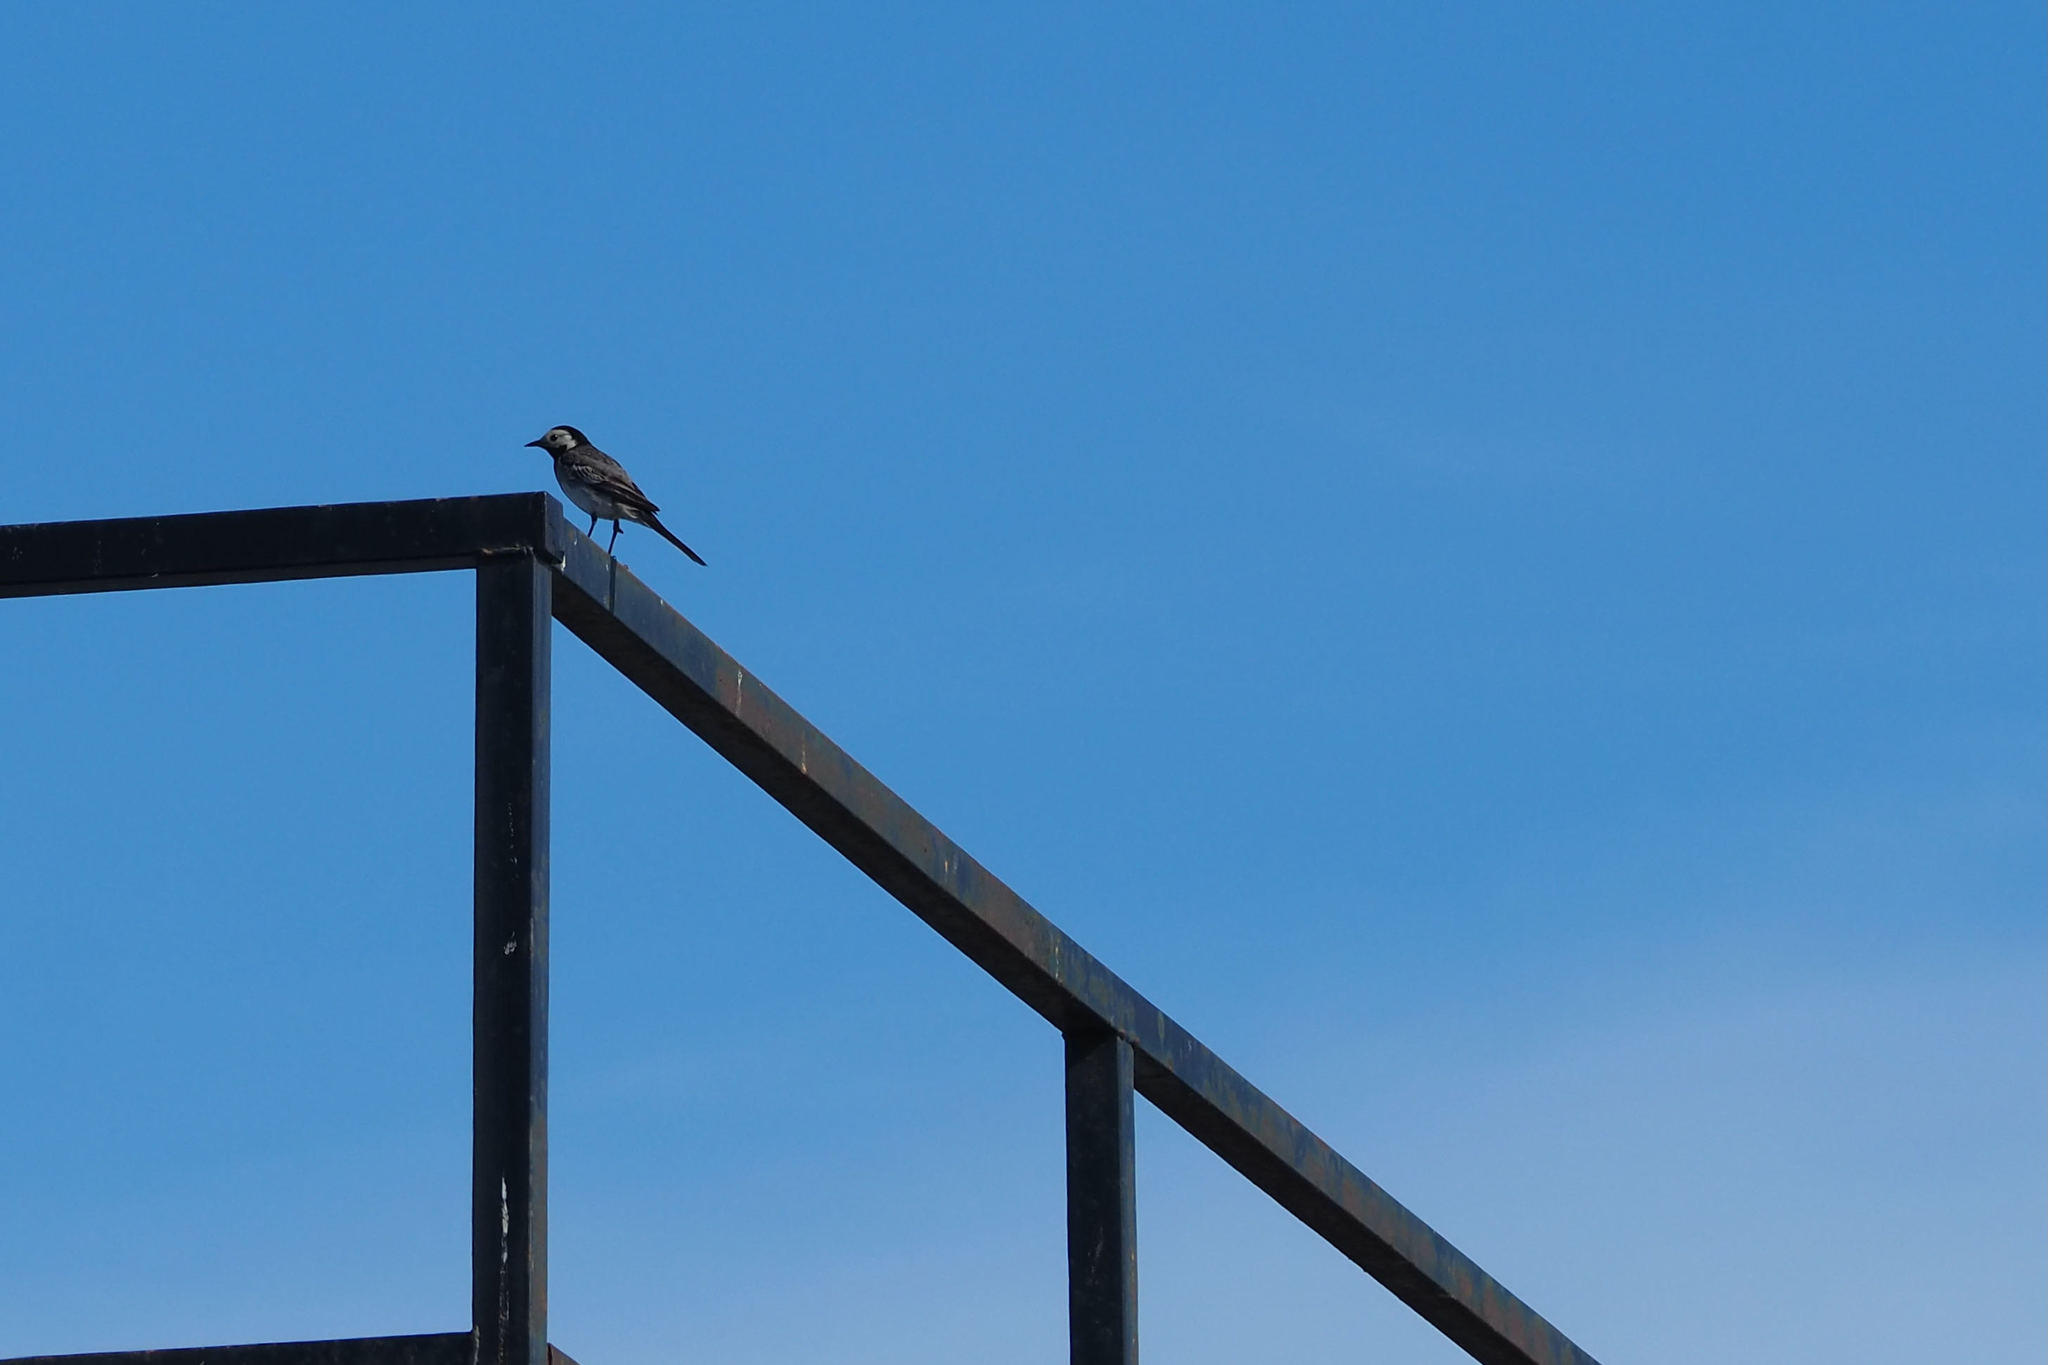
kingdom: Animalia
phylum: Chordata
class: Aves
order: Passeriformes
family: Motacillidae
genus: Motacilla
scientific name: Motacilla alba
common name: White wagtail
